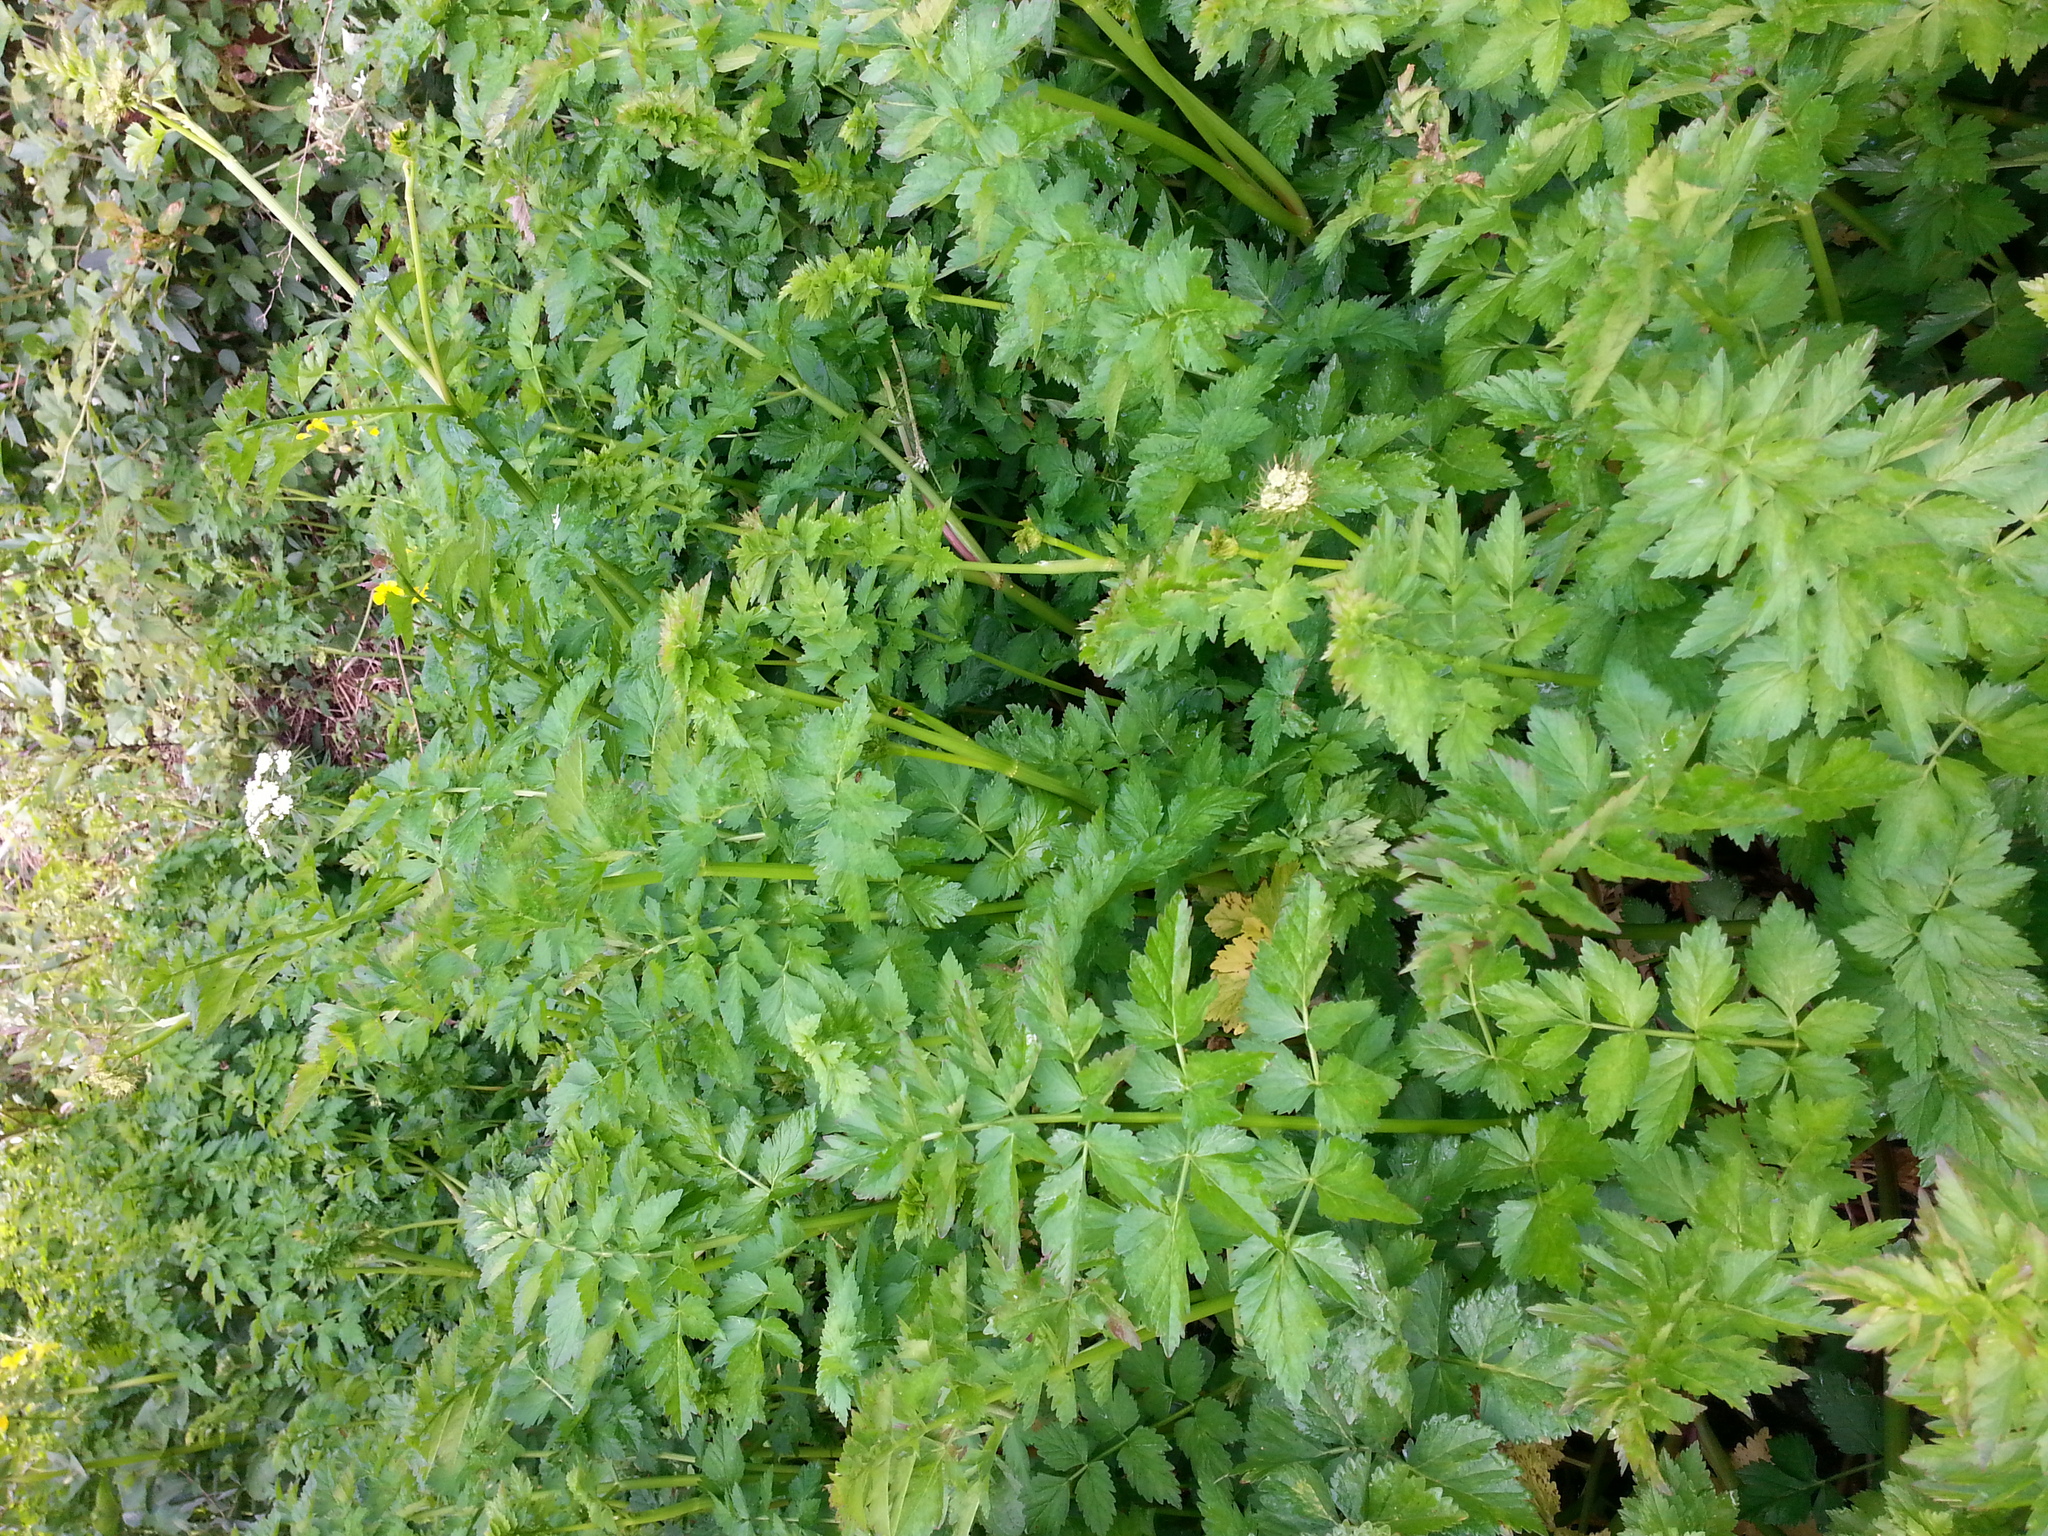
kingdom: Plantae
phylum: Tracheophyta
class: Magnoliopsida
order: Apiales
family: Apiaceae
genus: Oenanthe
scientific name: Oenanthe sarmentosa
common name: American water-parsley
